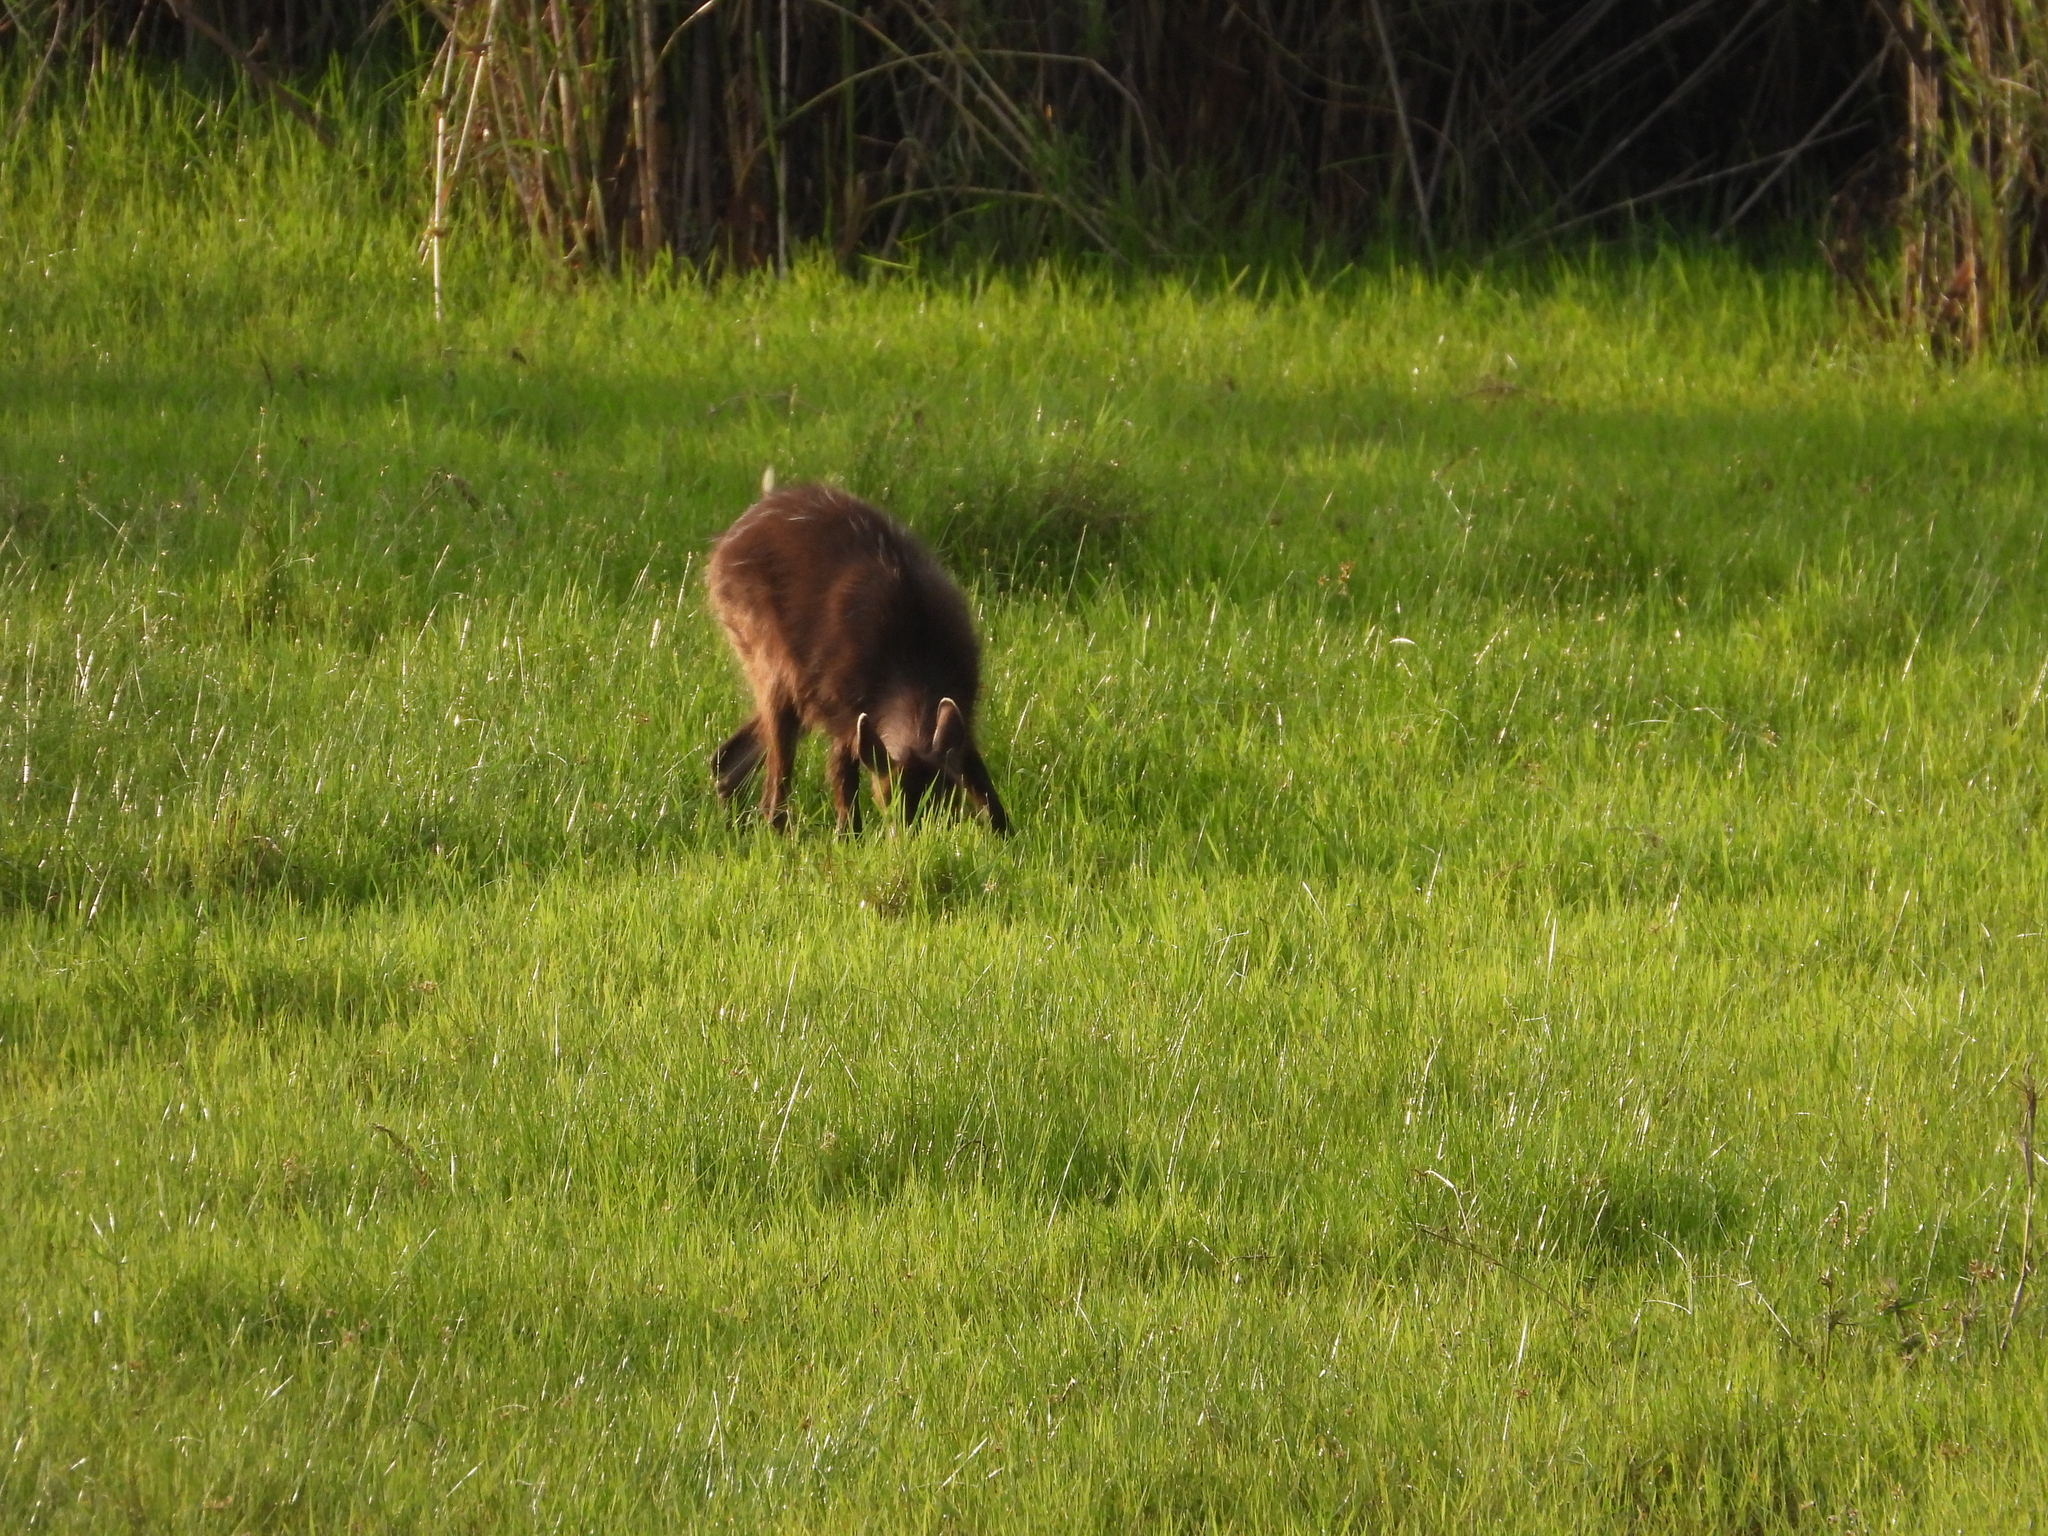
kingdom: Animalia
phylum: Chordata
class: Mammalia
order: Artiodactyla
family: Bovidae
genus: Tragelaphus
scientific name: Tragelaphus spekii
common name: Sitatunga
